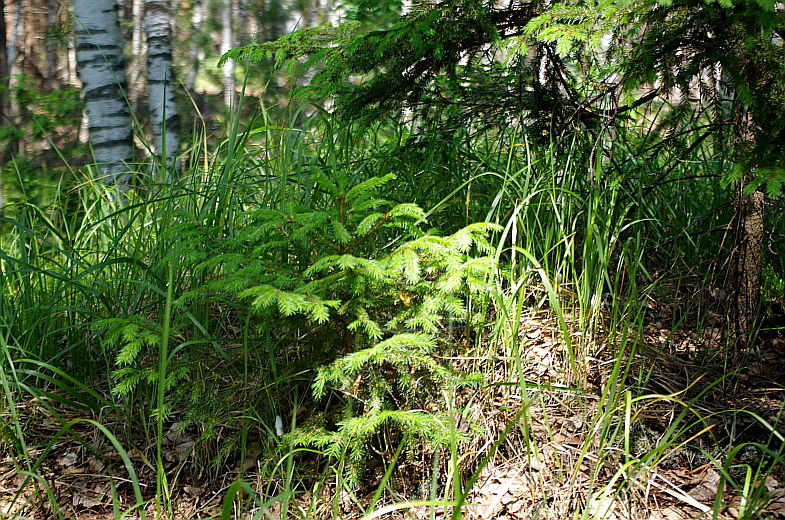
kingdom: Plantae
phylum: Tracheophyta
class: Pinopsida
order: Pinales
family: Pinaceae
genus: Picea
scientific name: Picea abies
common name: Norway spruce
